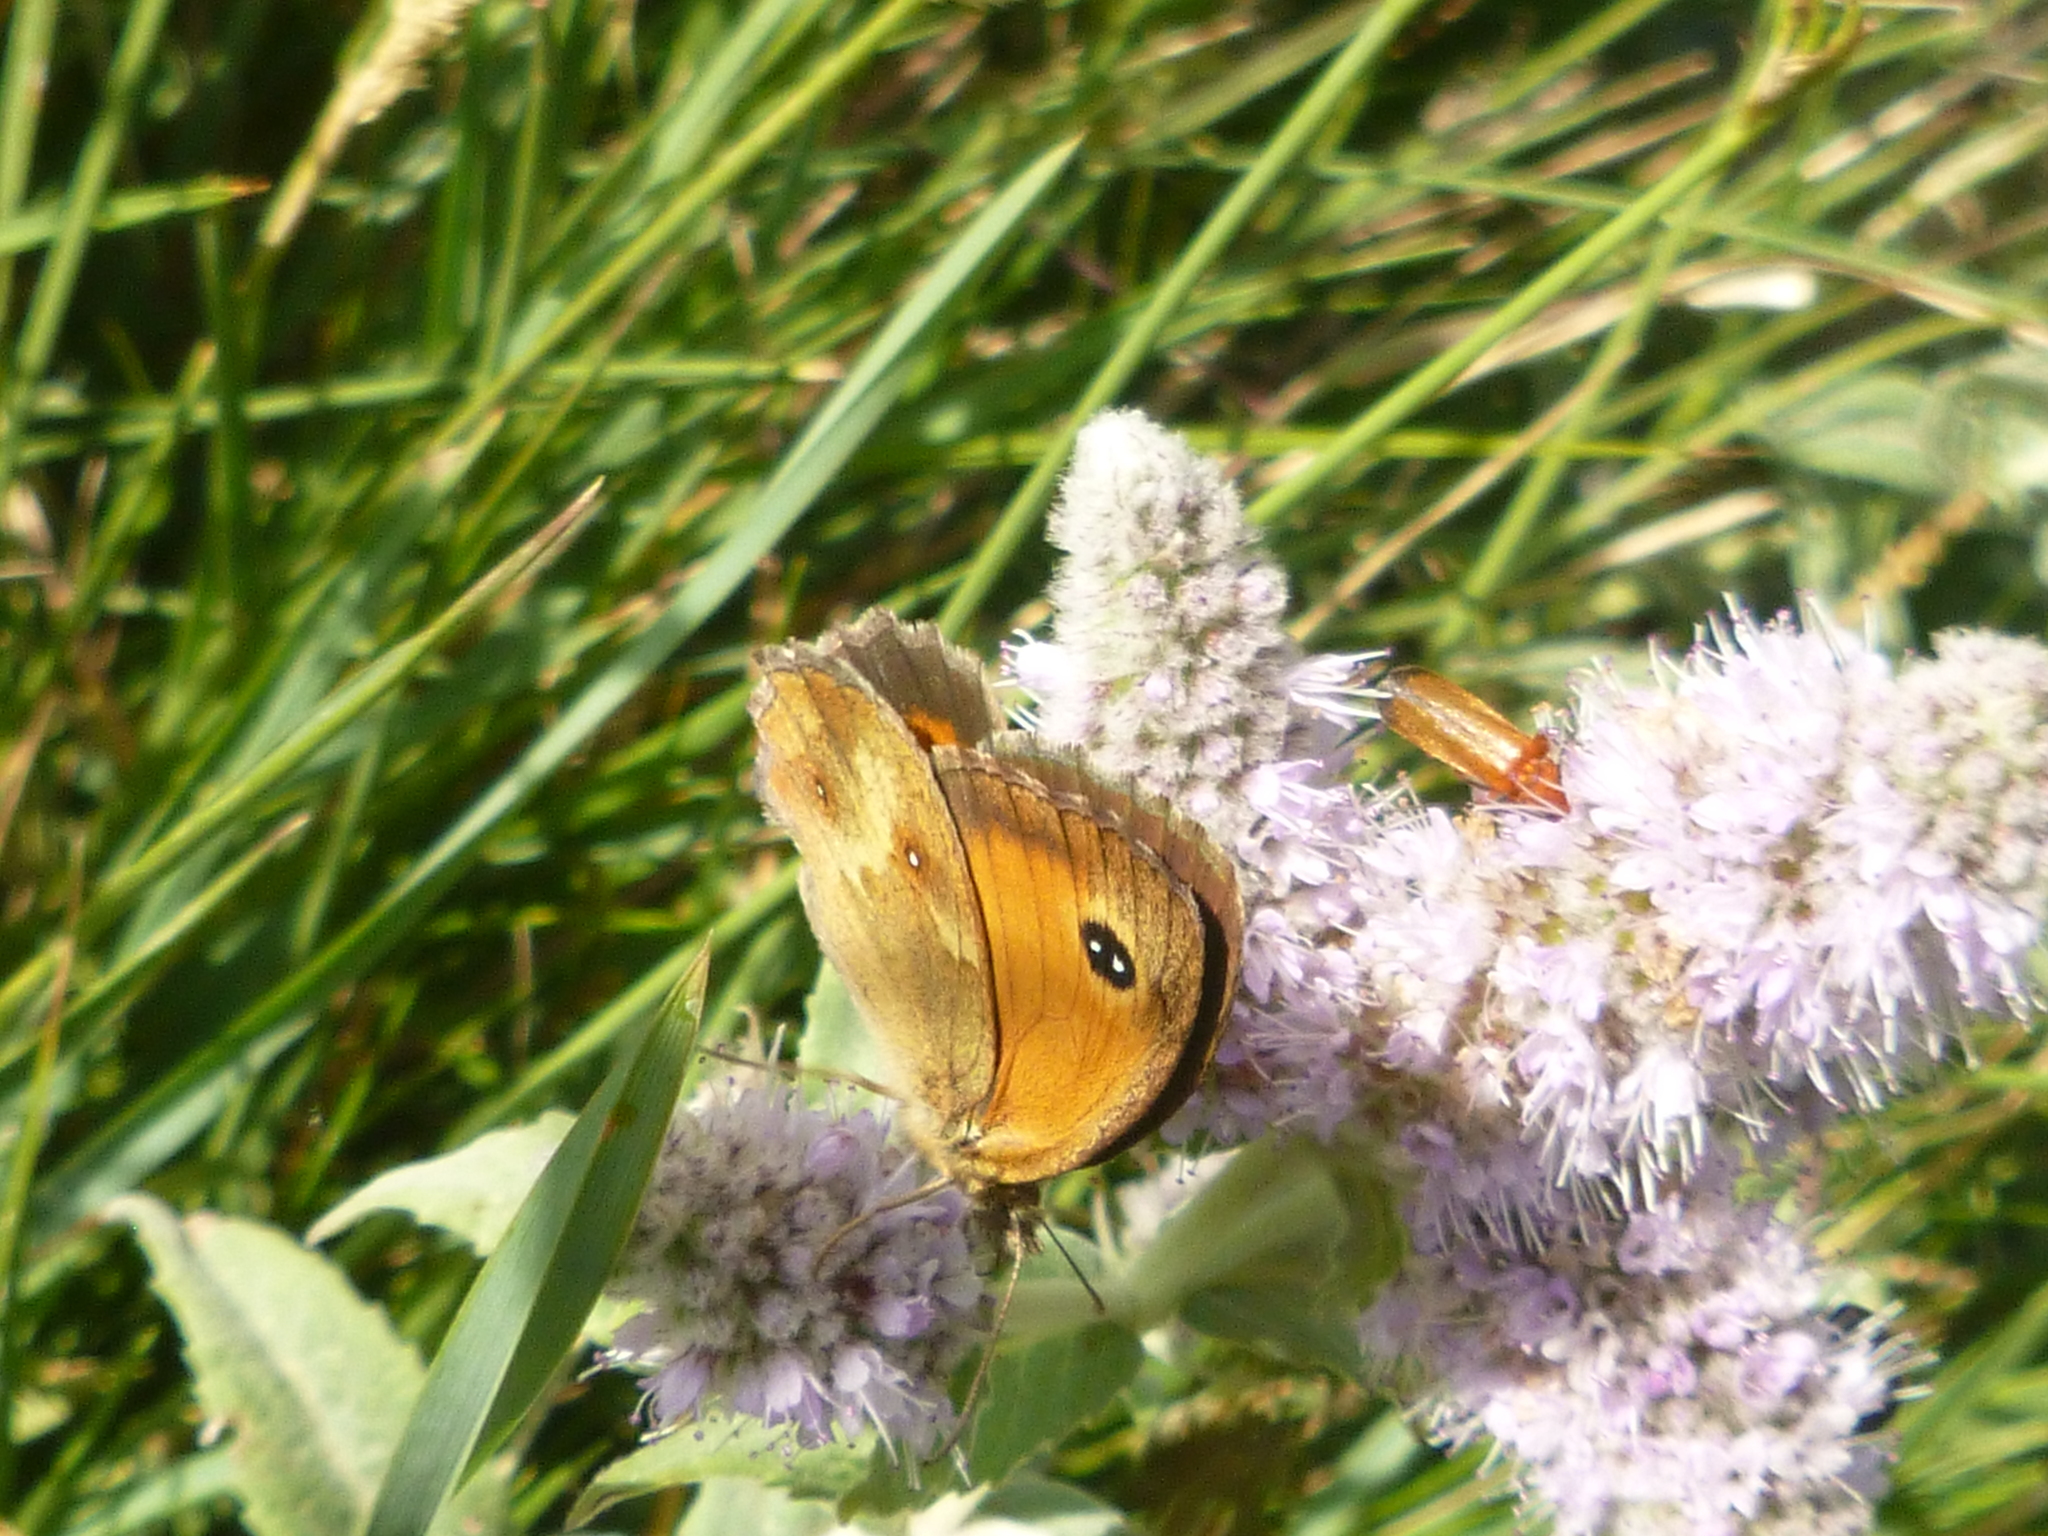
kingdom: Animalia
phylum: Arthropoda
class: Insecta
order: Lepidoptera
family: Nymphalidae
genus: Pyronia
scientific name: Pyronia tithonus
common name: Gatekeeper
